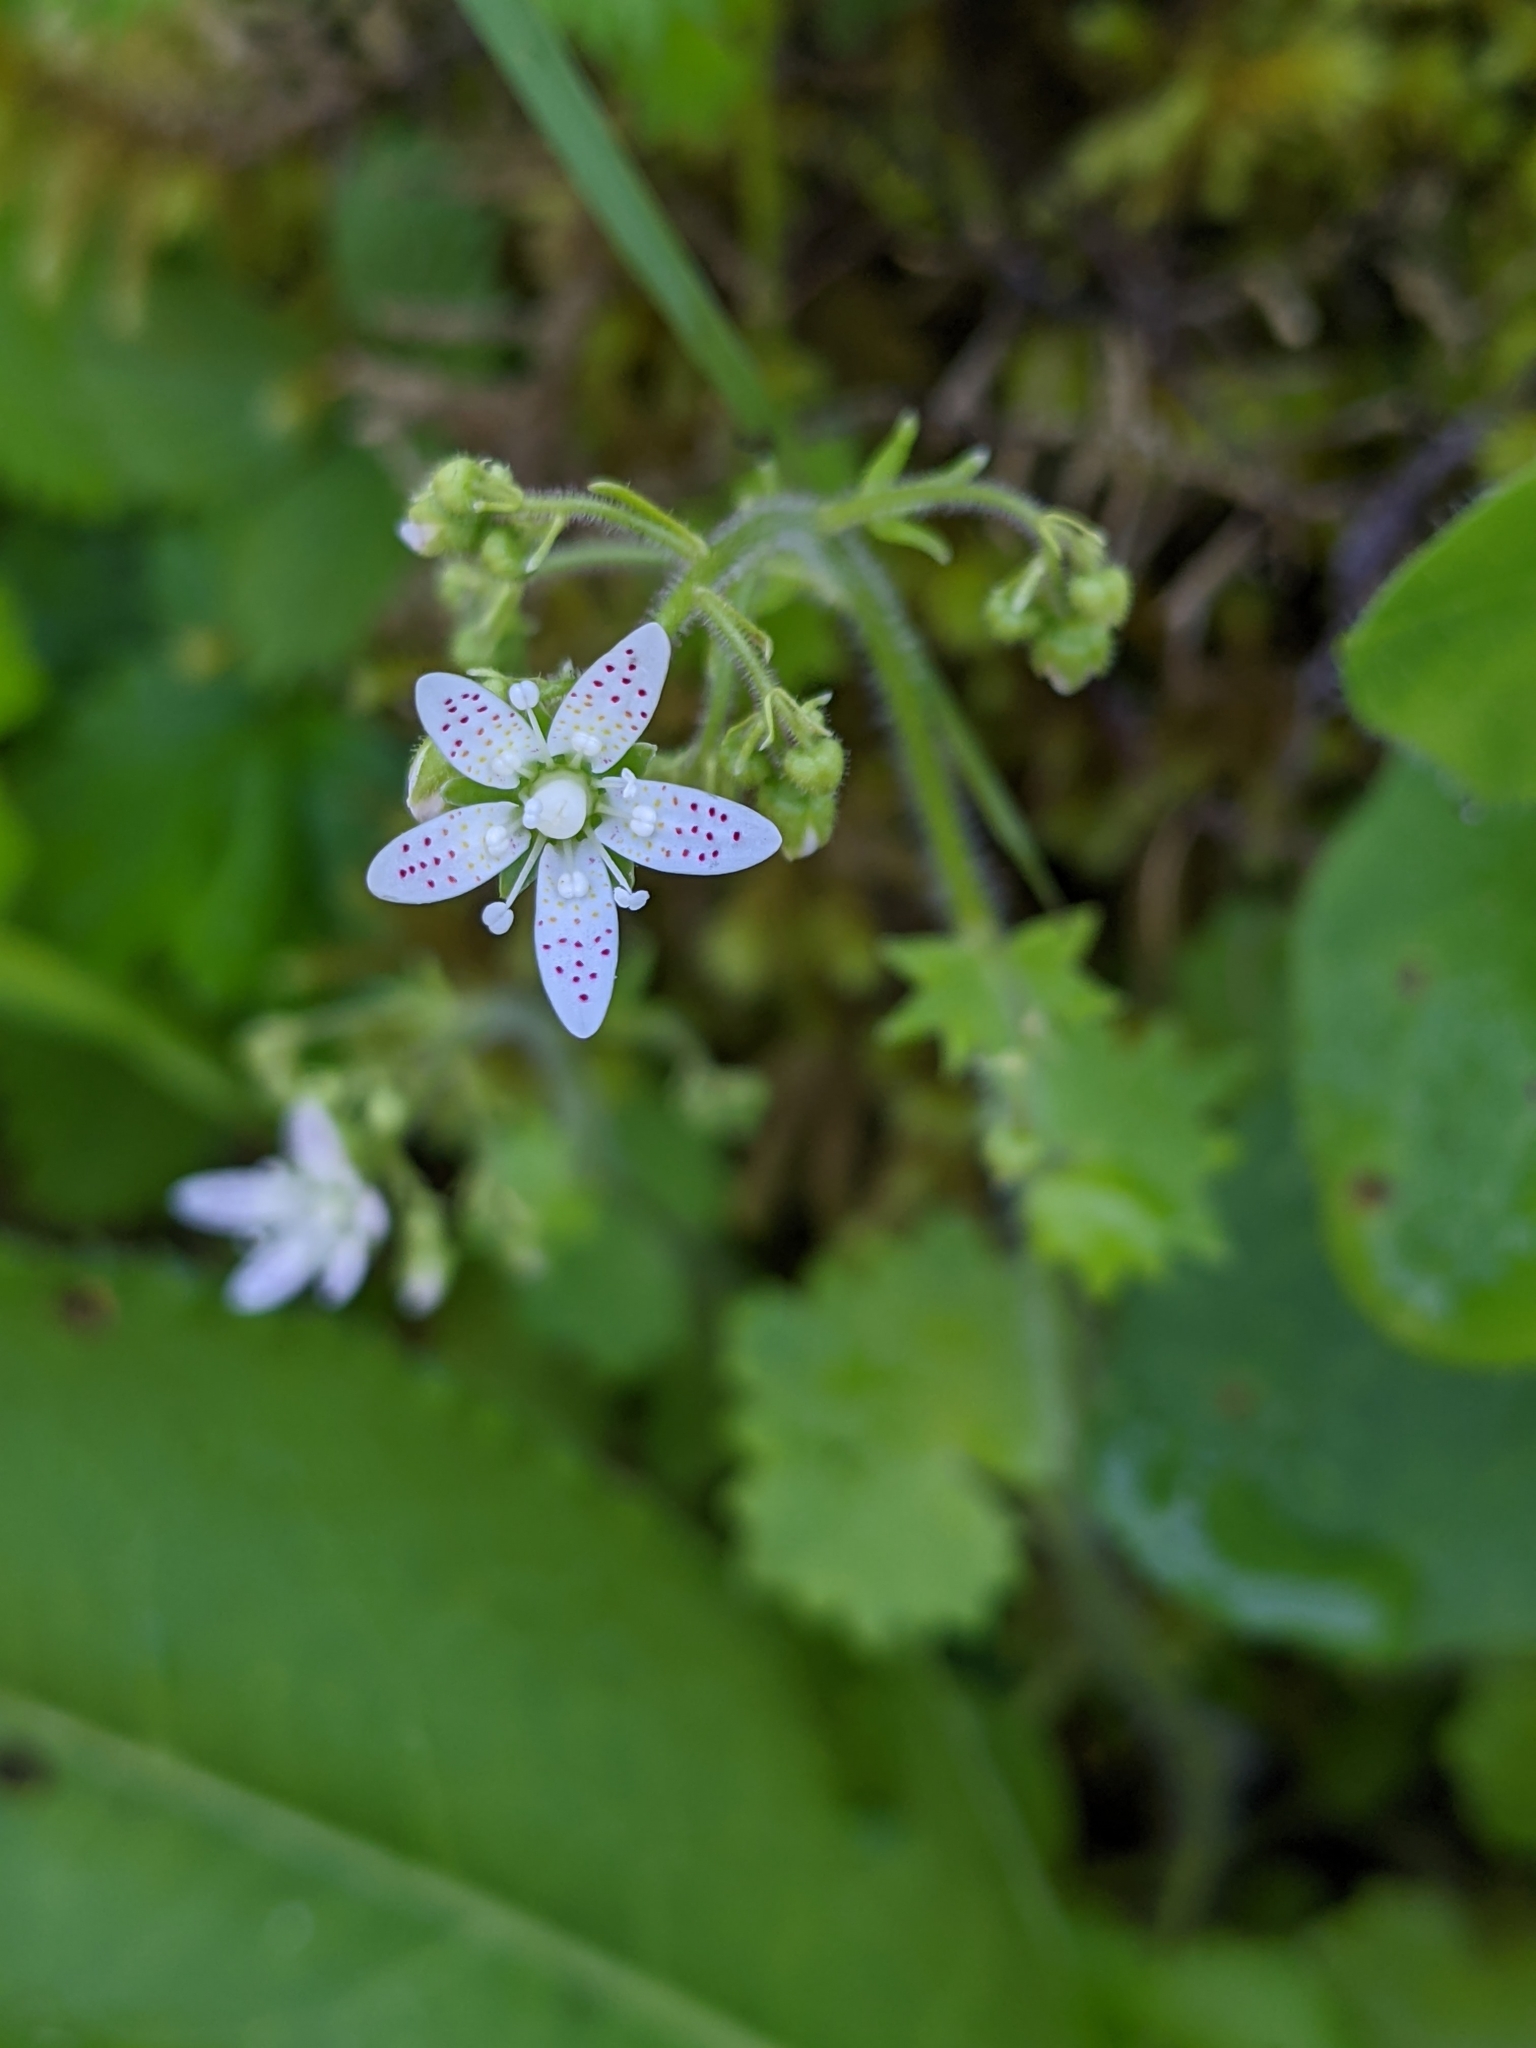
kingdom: Plantae
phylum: Tracheophyta
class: Magnoliopsida
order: Saxifragales
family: Saxifragaceae
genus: Saxifraga
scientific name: Saxifraga rotundifolia
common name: Round-leaved saxifrage
